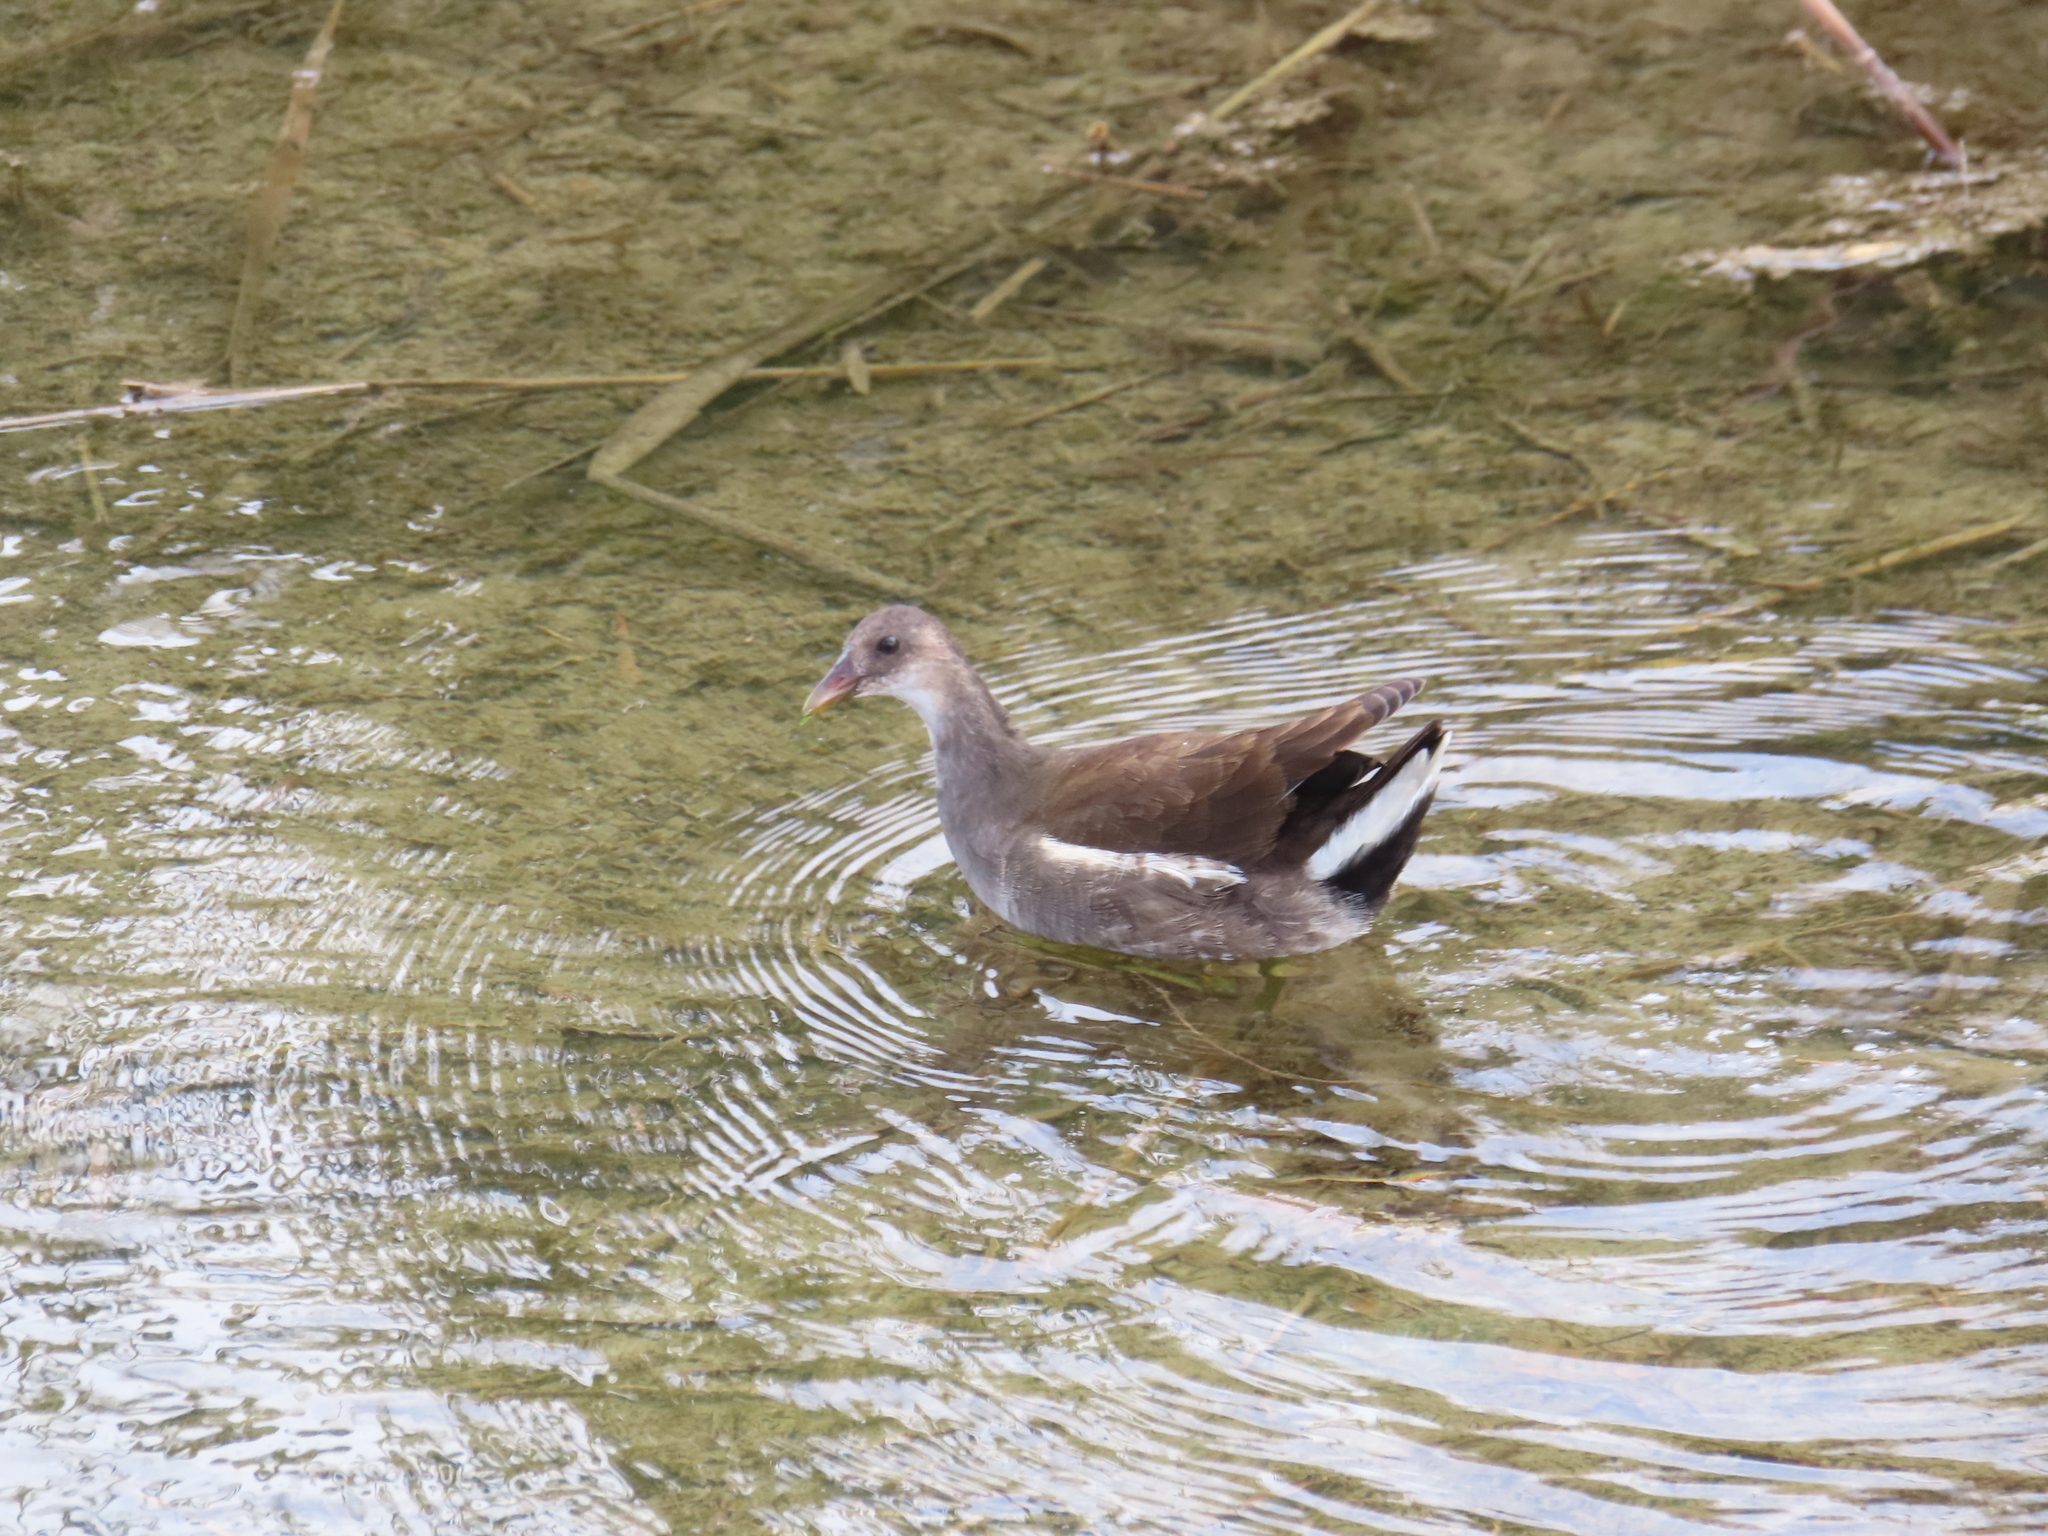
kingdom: Animalia
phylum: Chordata
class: Aves
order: Gruiformes
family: Rallidae
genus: Gallinula
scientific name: Gallinula chloropus
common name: Common moorhen
